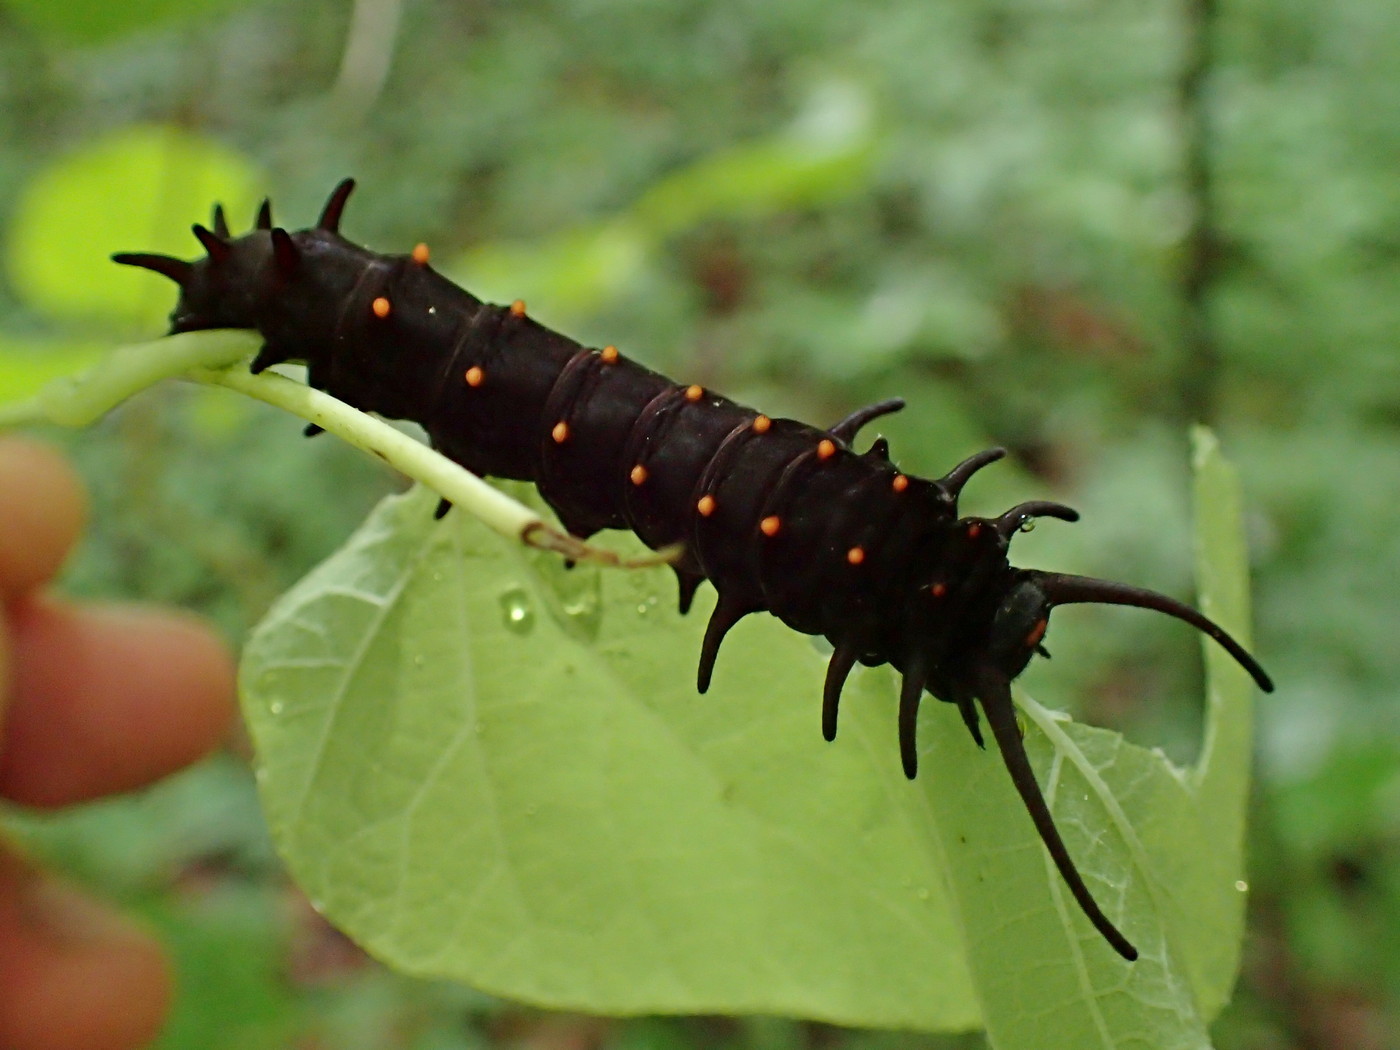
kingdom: Animalia
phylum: Arthropoda
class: Insecta
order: Lepidoptera
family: Papilionidae
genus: Battus
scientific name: Battus philenor
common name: Pipevine swallowtail
